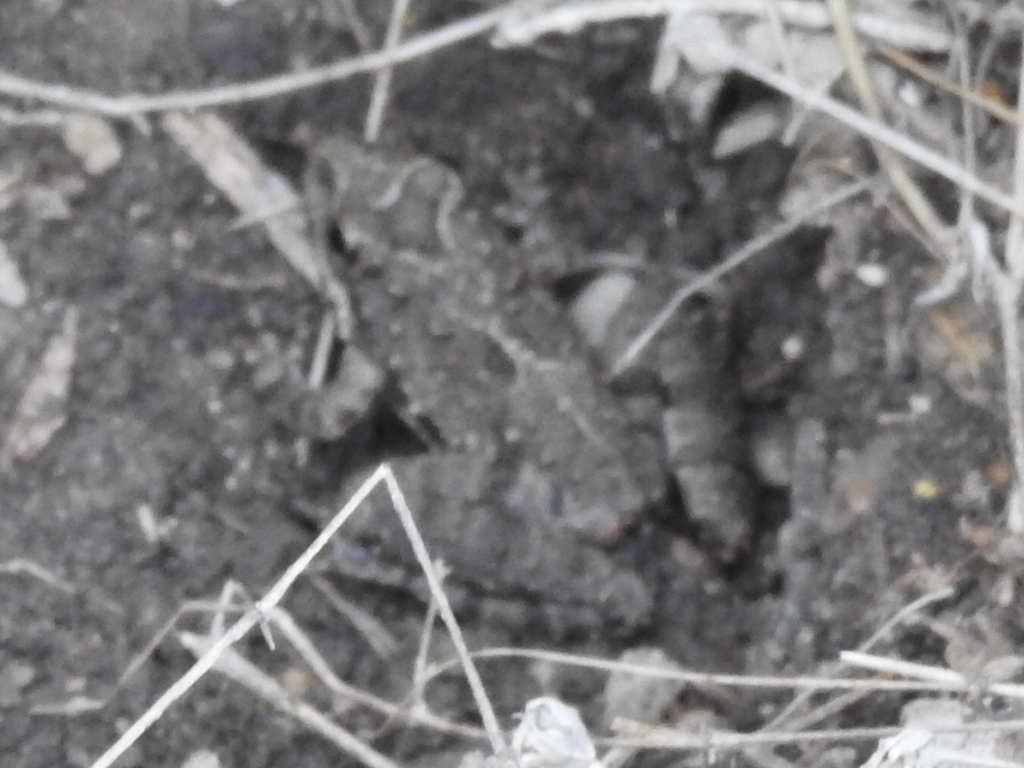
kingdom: Animalia
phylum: Chordata
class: Amphibia
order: Anura
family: Hylidae
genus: Acris
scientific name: Acris blanchardi
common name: Blanchard's cricket frog
